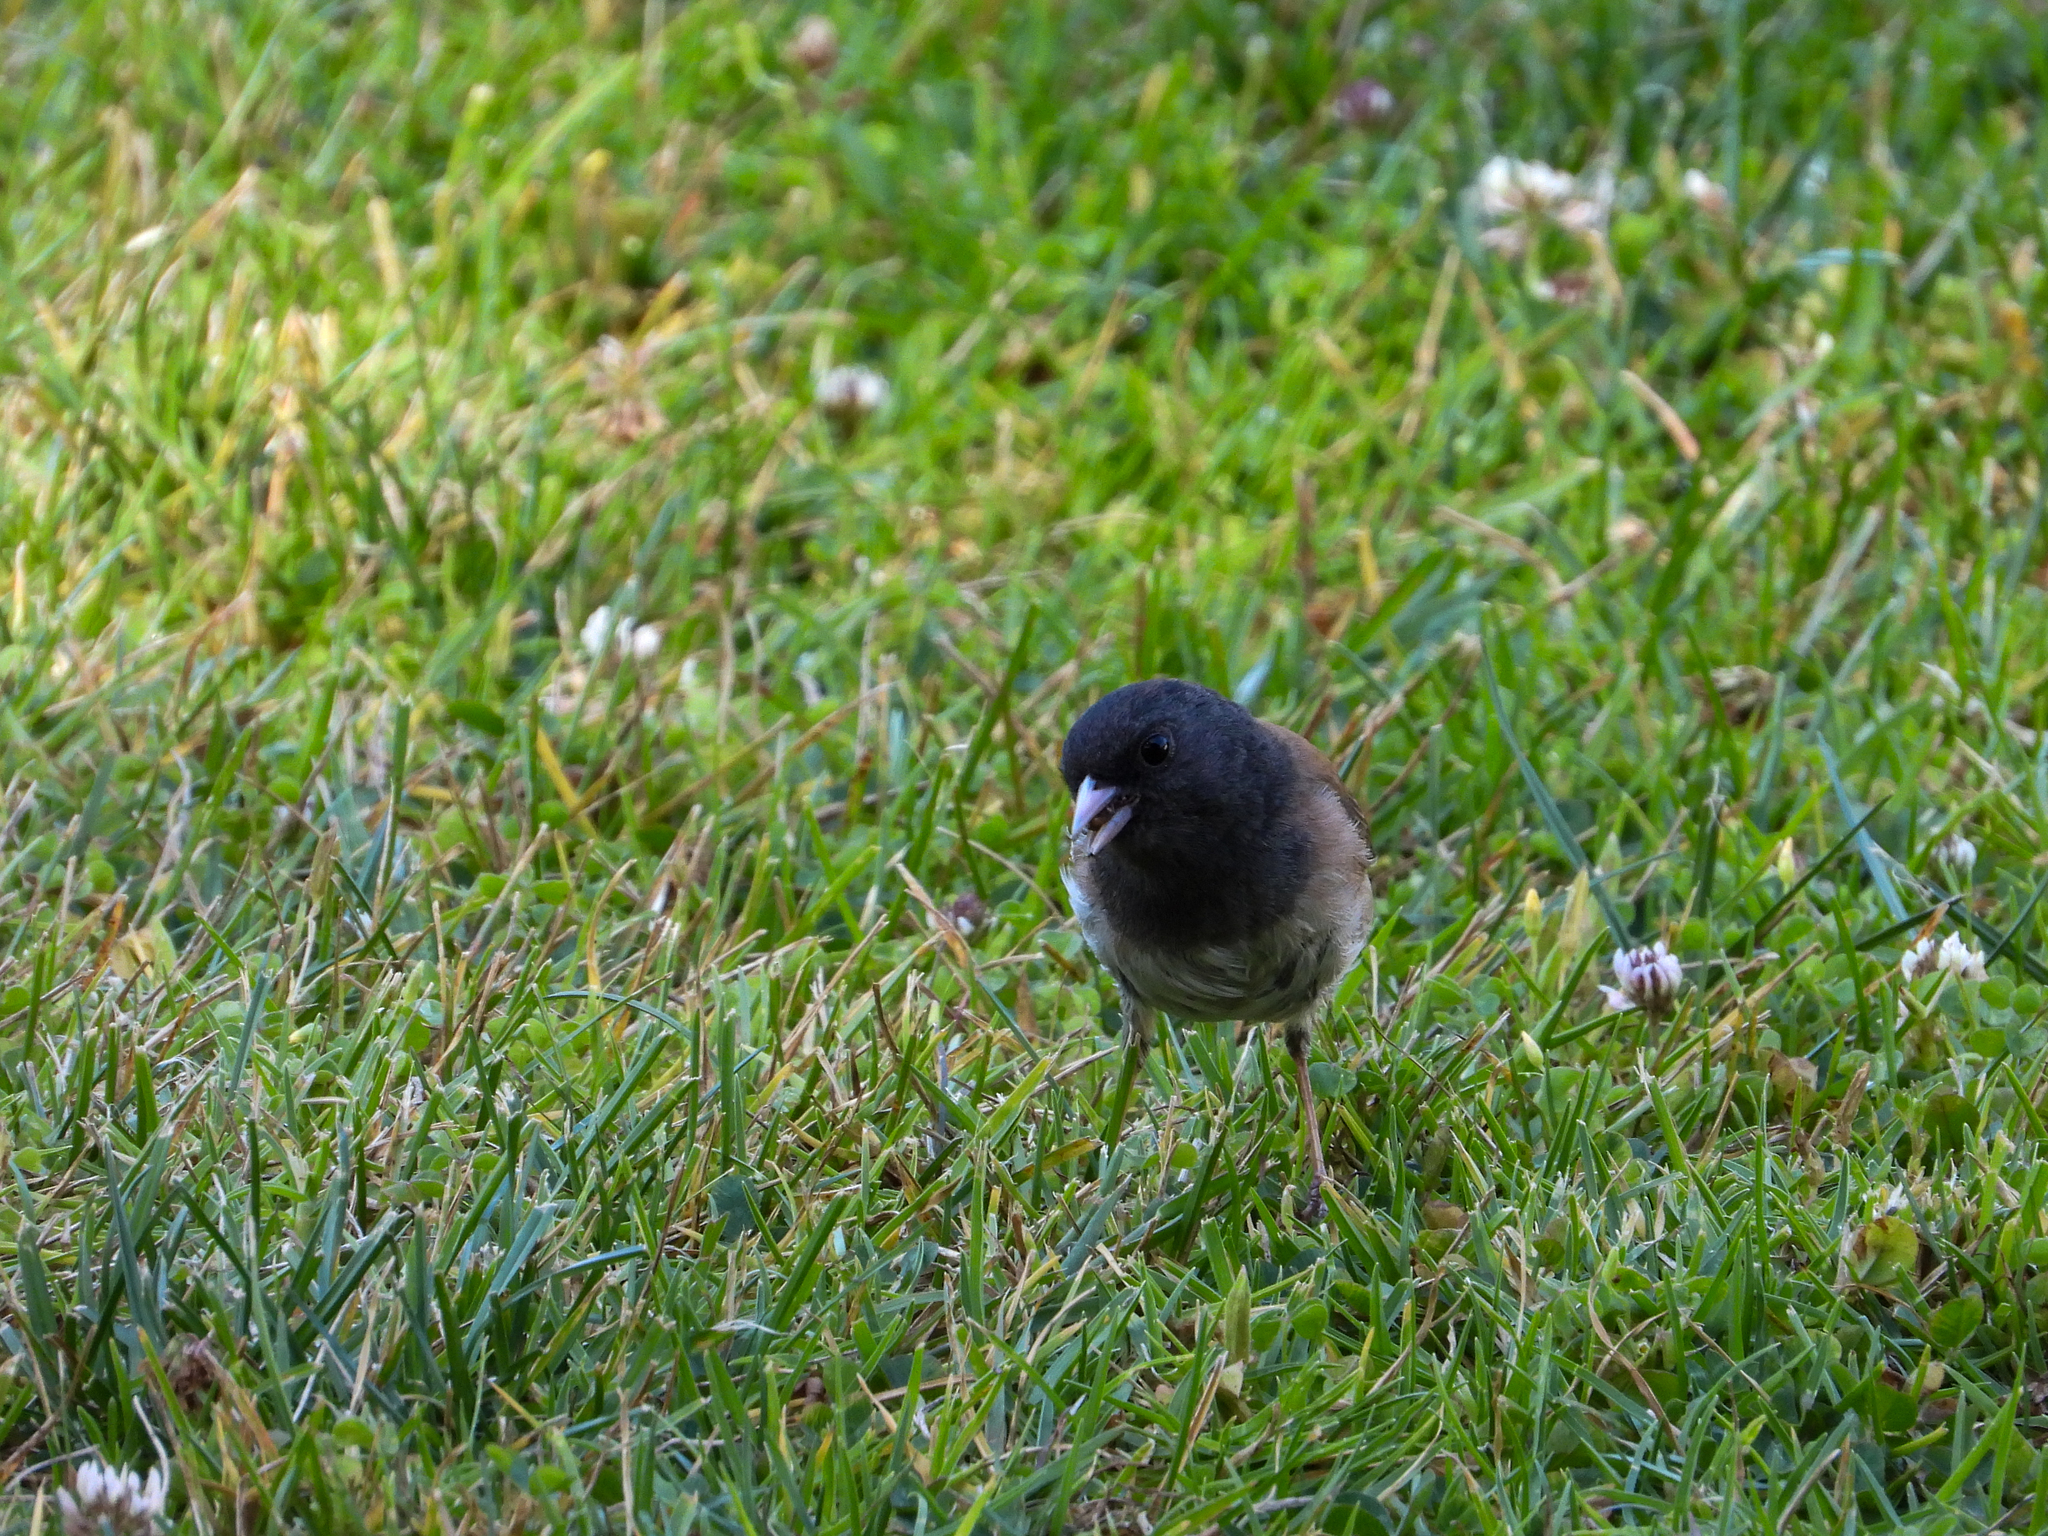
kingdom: Animalia
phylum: Chordata
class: Aves
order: Passeriformes
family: Passerellidae
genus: Junco
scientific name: Junco hyemalis
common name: Dark-eyed junco
